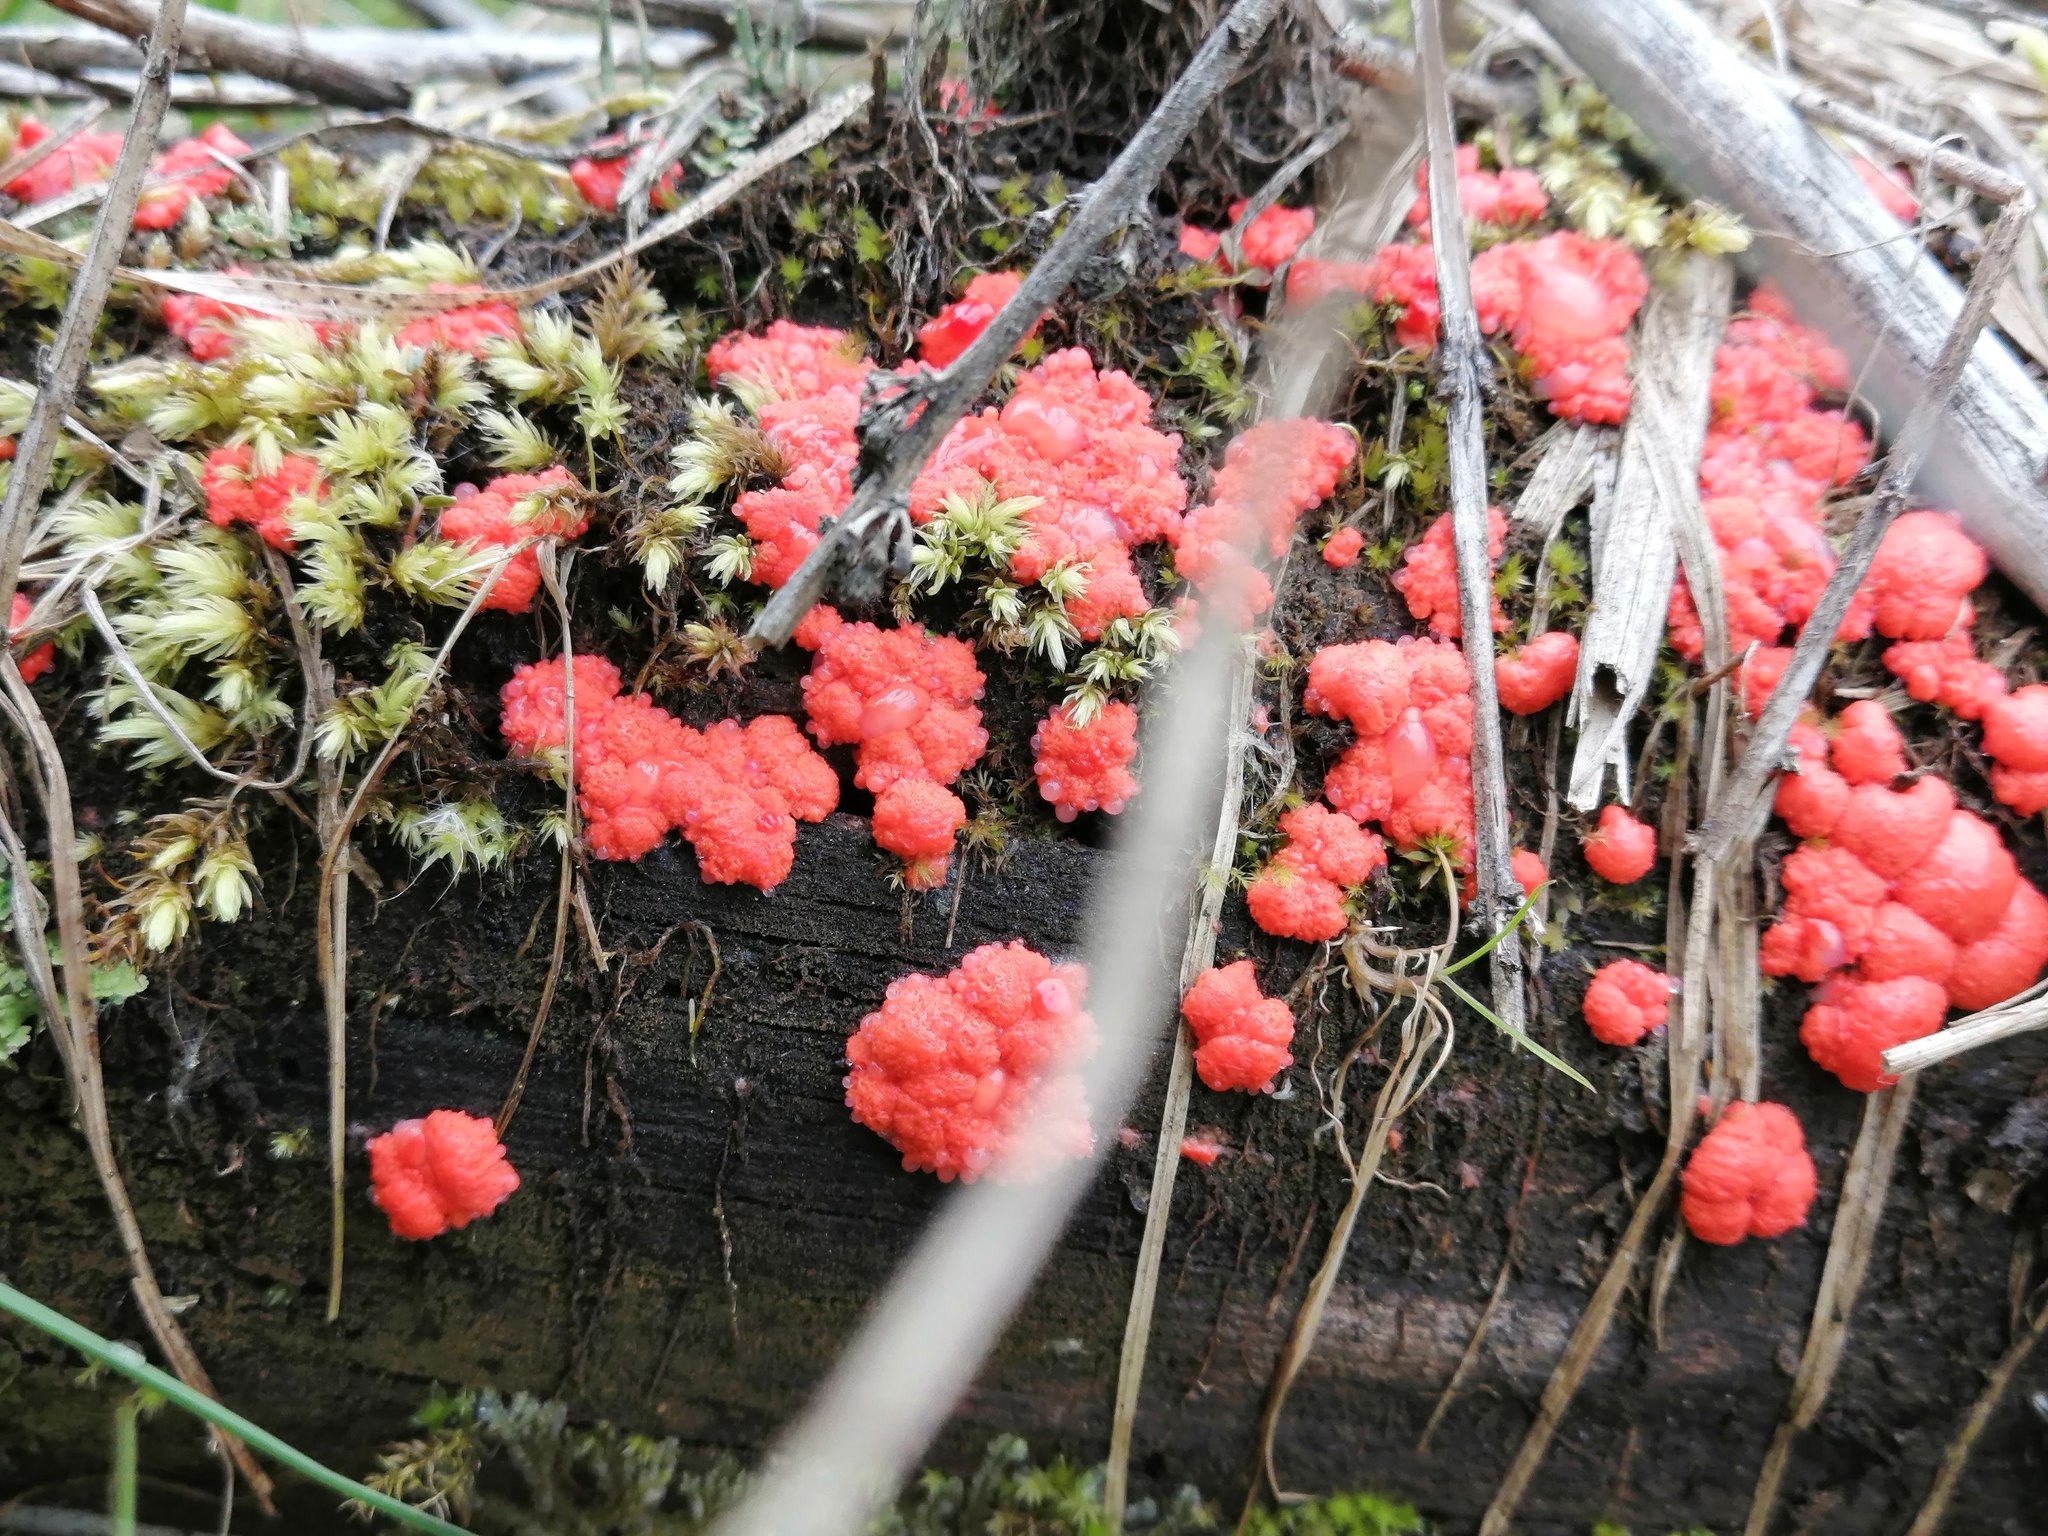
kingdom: Protozoa
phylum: Mycetozoa
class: Myxomycetes
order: Cribrariales
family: Tubiferaceae
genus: Tubifera
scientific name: Tubifera ferruginosa
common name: Red raspberry slime mold
